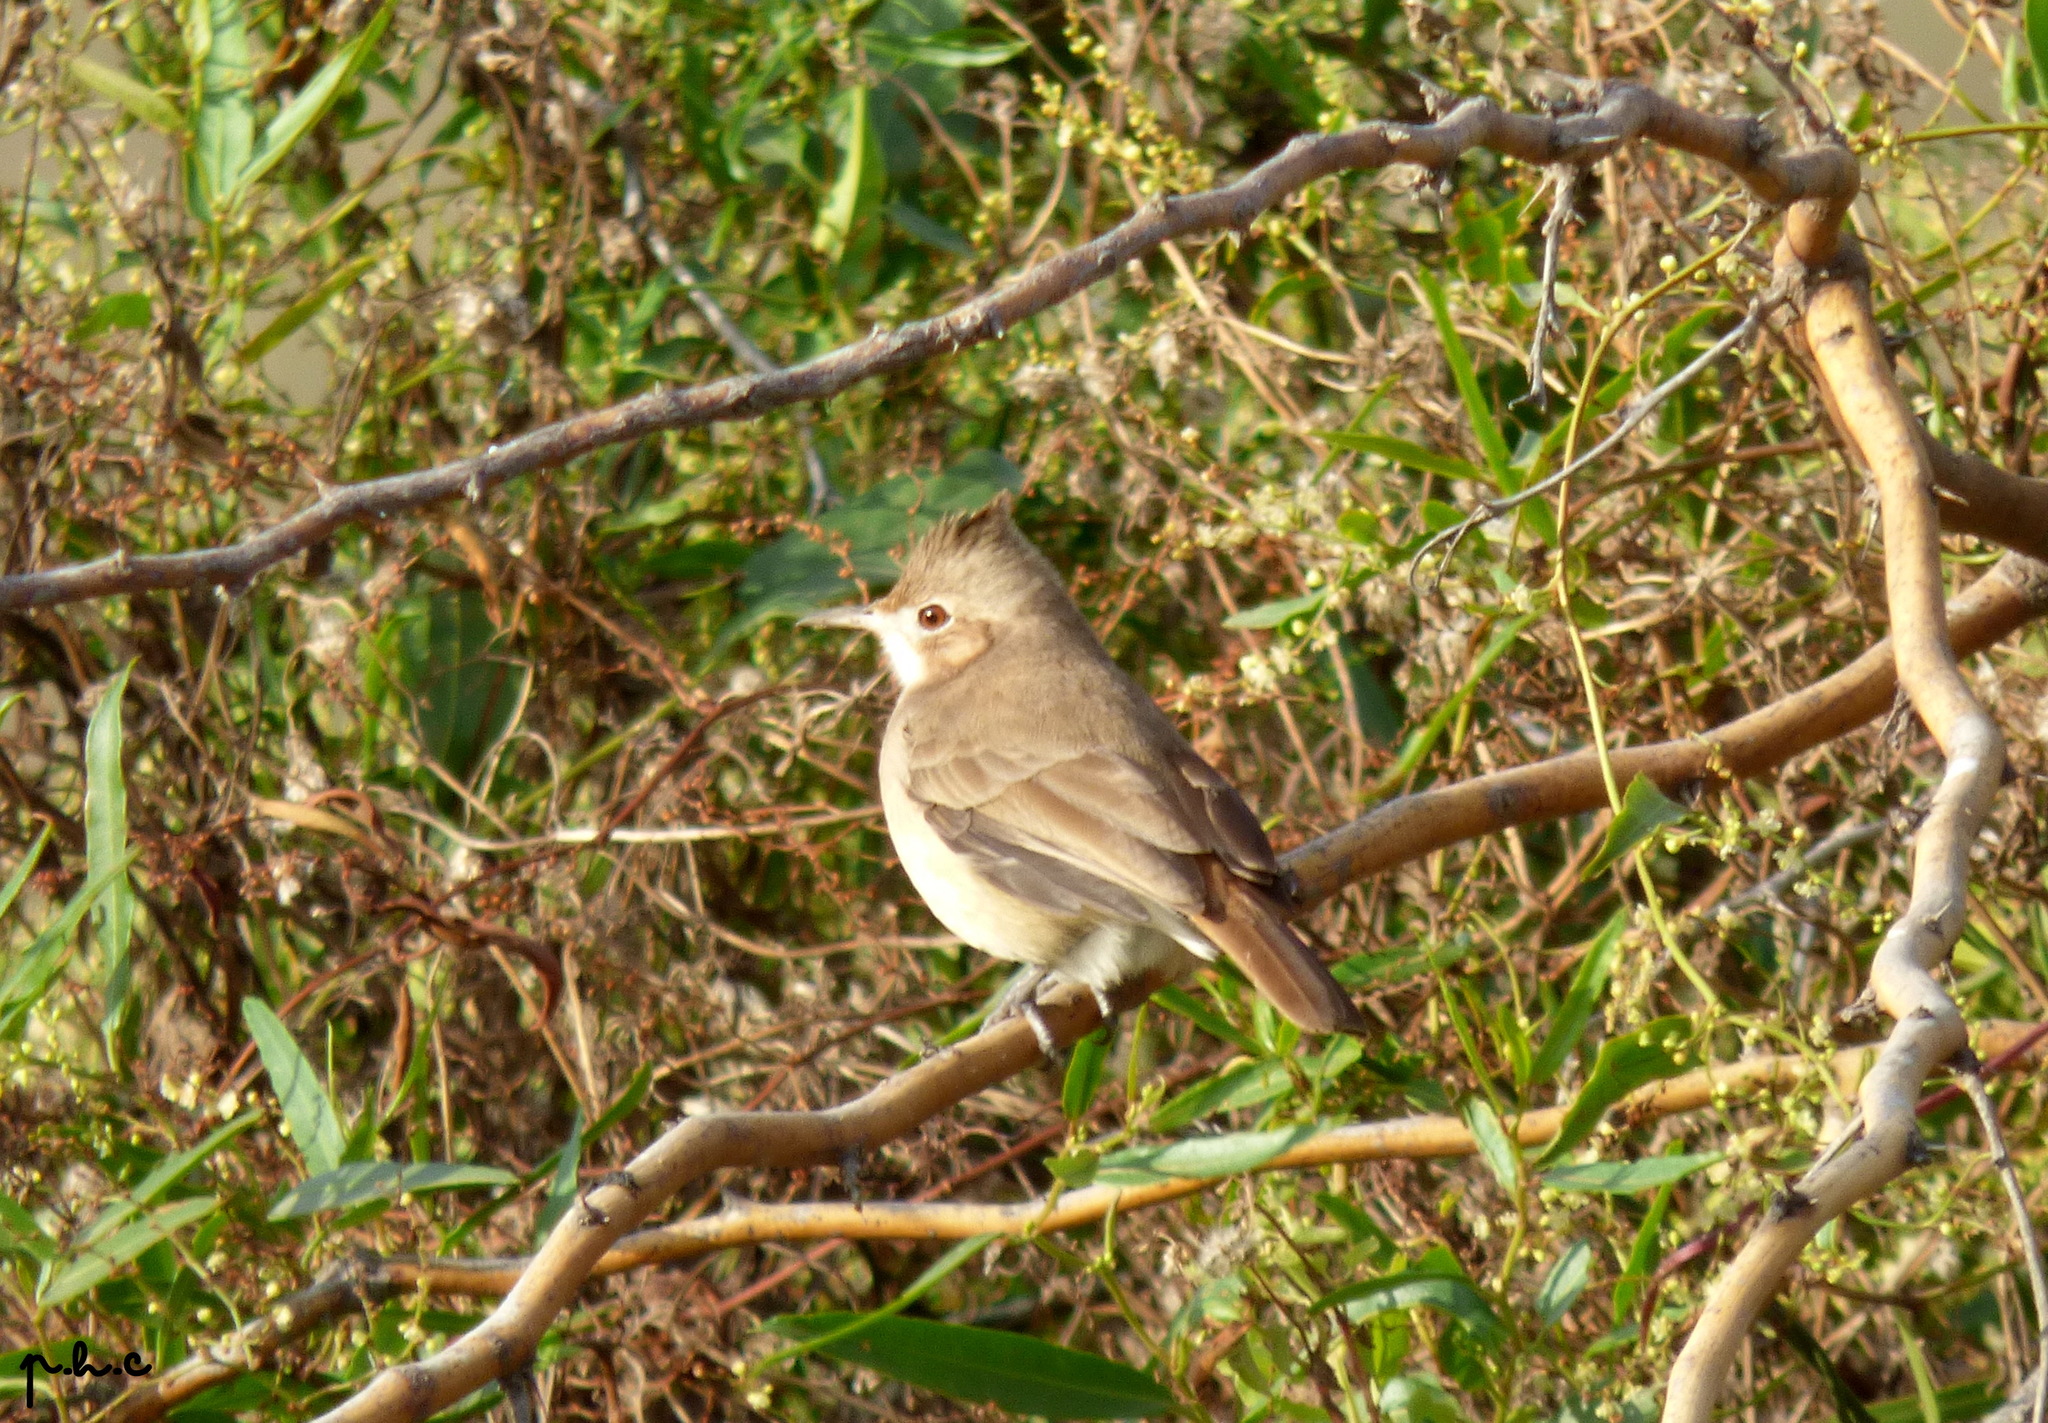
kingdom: Animalia
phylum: Chordata
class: Aves
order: Passeriformes
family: Furnariidae
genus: Furnarius
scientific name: Furnarius cristatus
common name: Crested hornero
